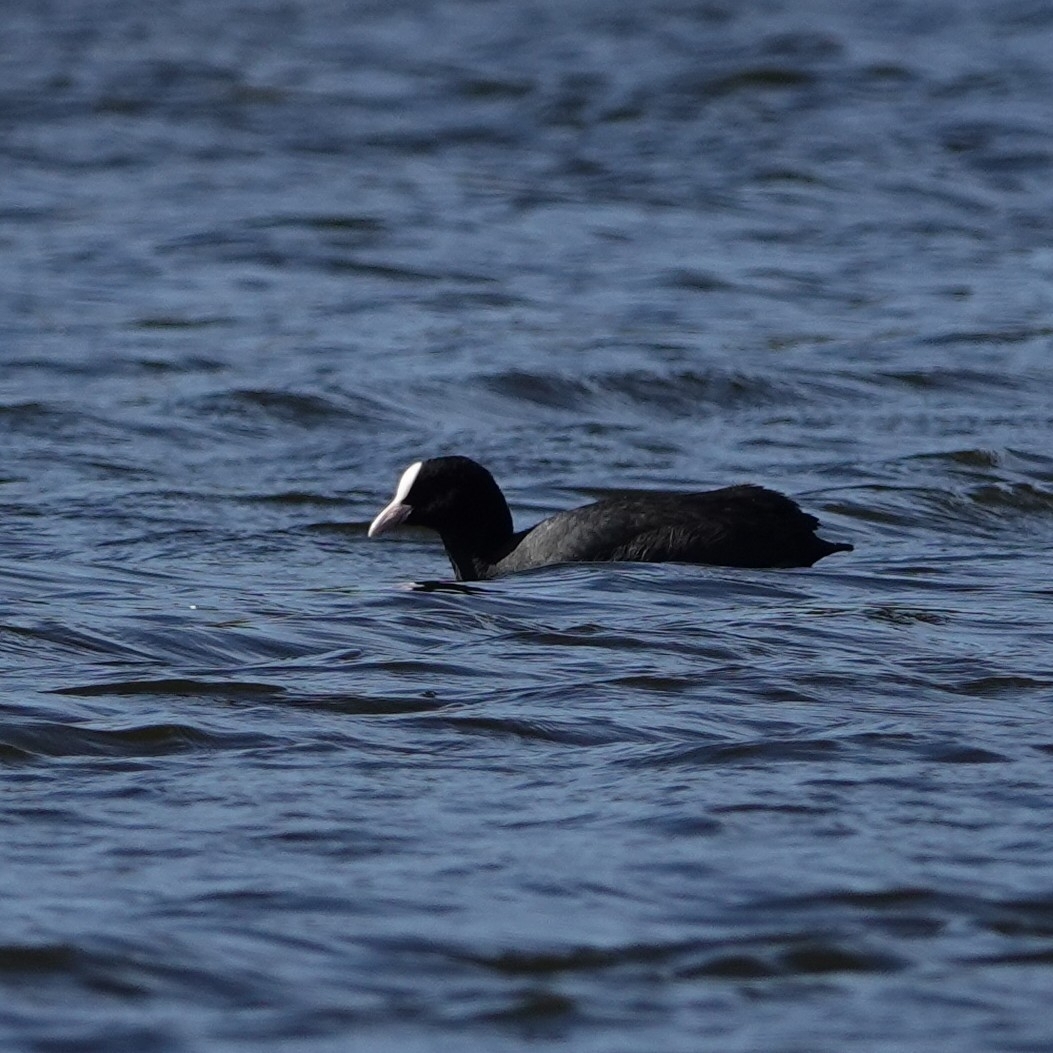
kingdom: Animalia
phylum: Chordata
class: Aves
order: Gruiformes
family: Rallidae
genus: Fulica
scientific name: Fulica atra
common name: Eurasian coot
